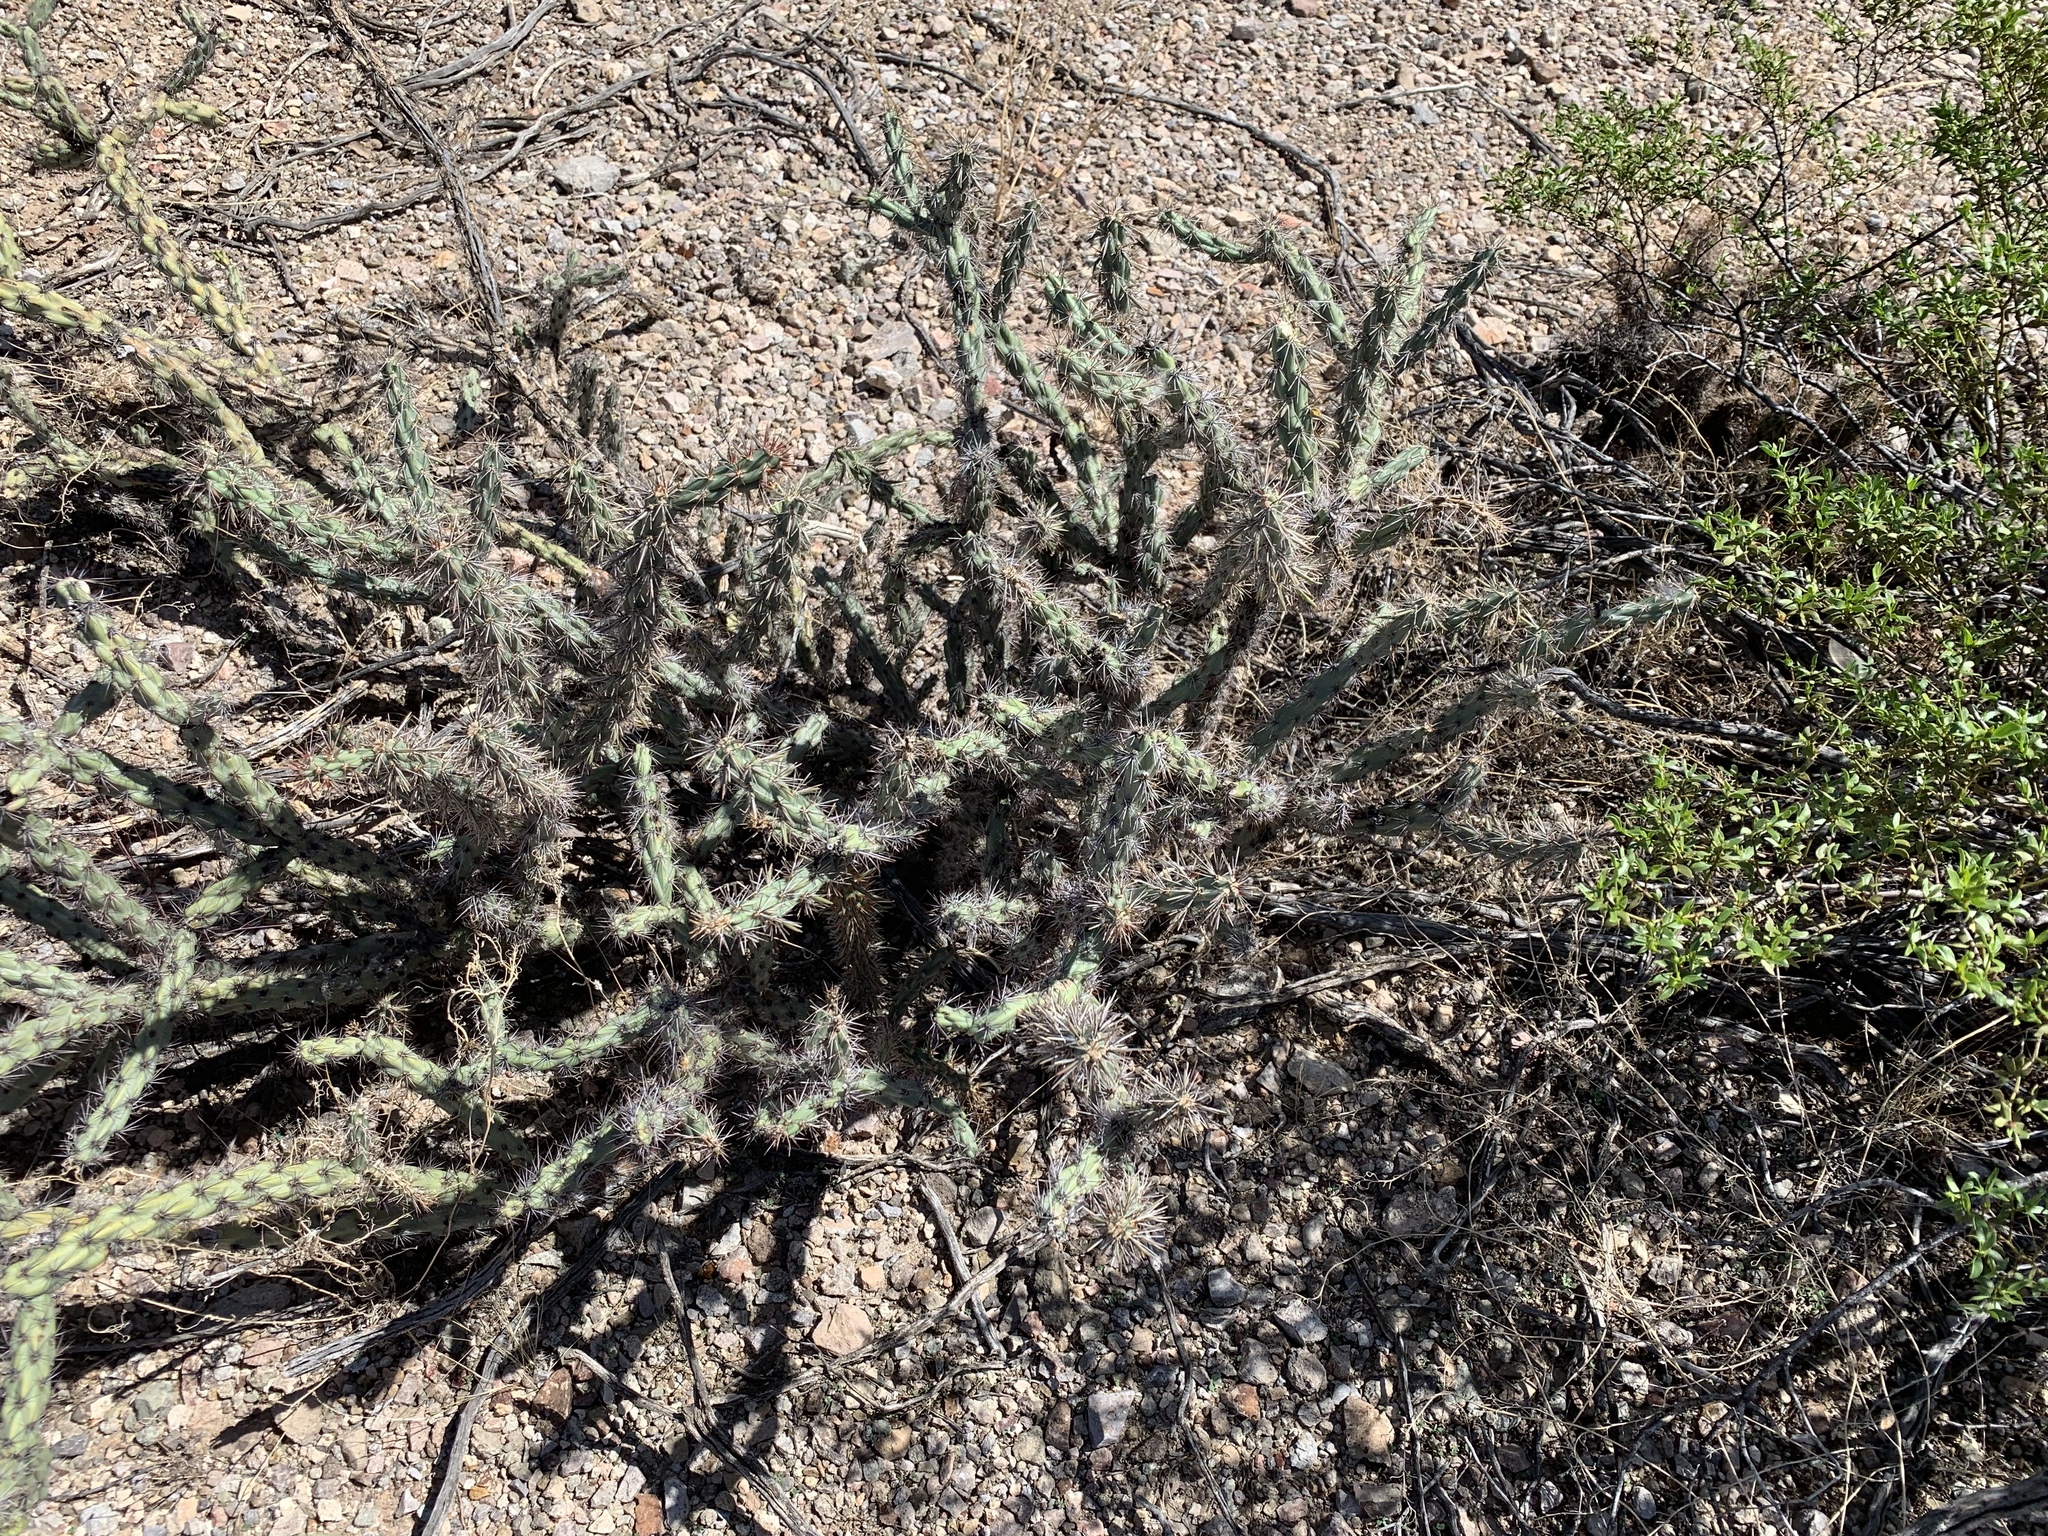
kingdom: Plantae
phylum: Tracheophyta
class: Magnoliopsida
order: Caryophyllales
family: Cactaceae
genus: Cylindropuntia
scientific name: Cylindropuntia acanthocarpa
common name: Buckhorn cholla
